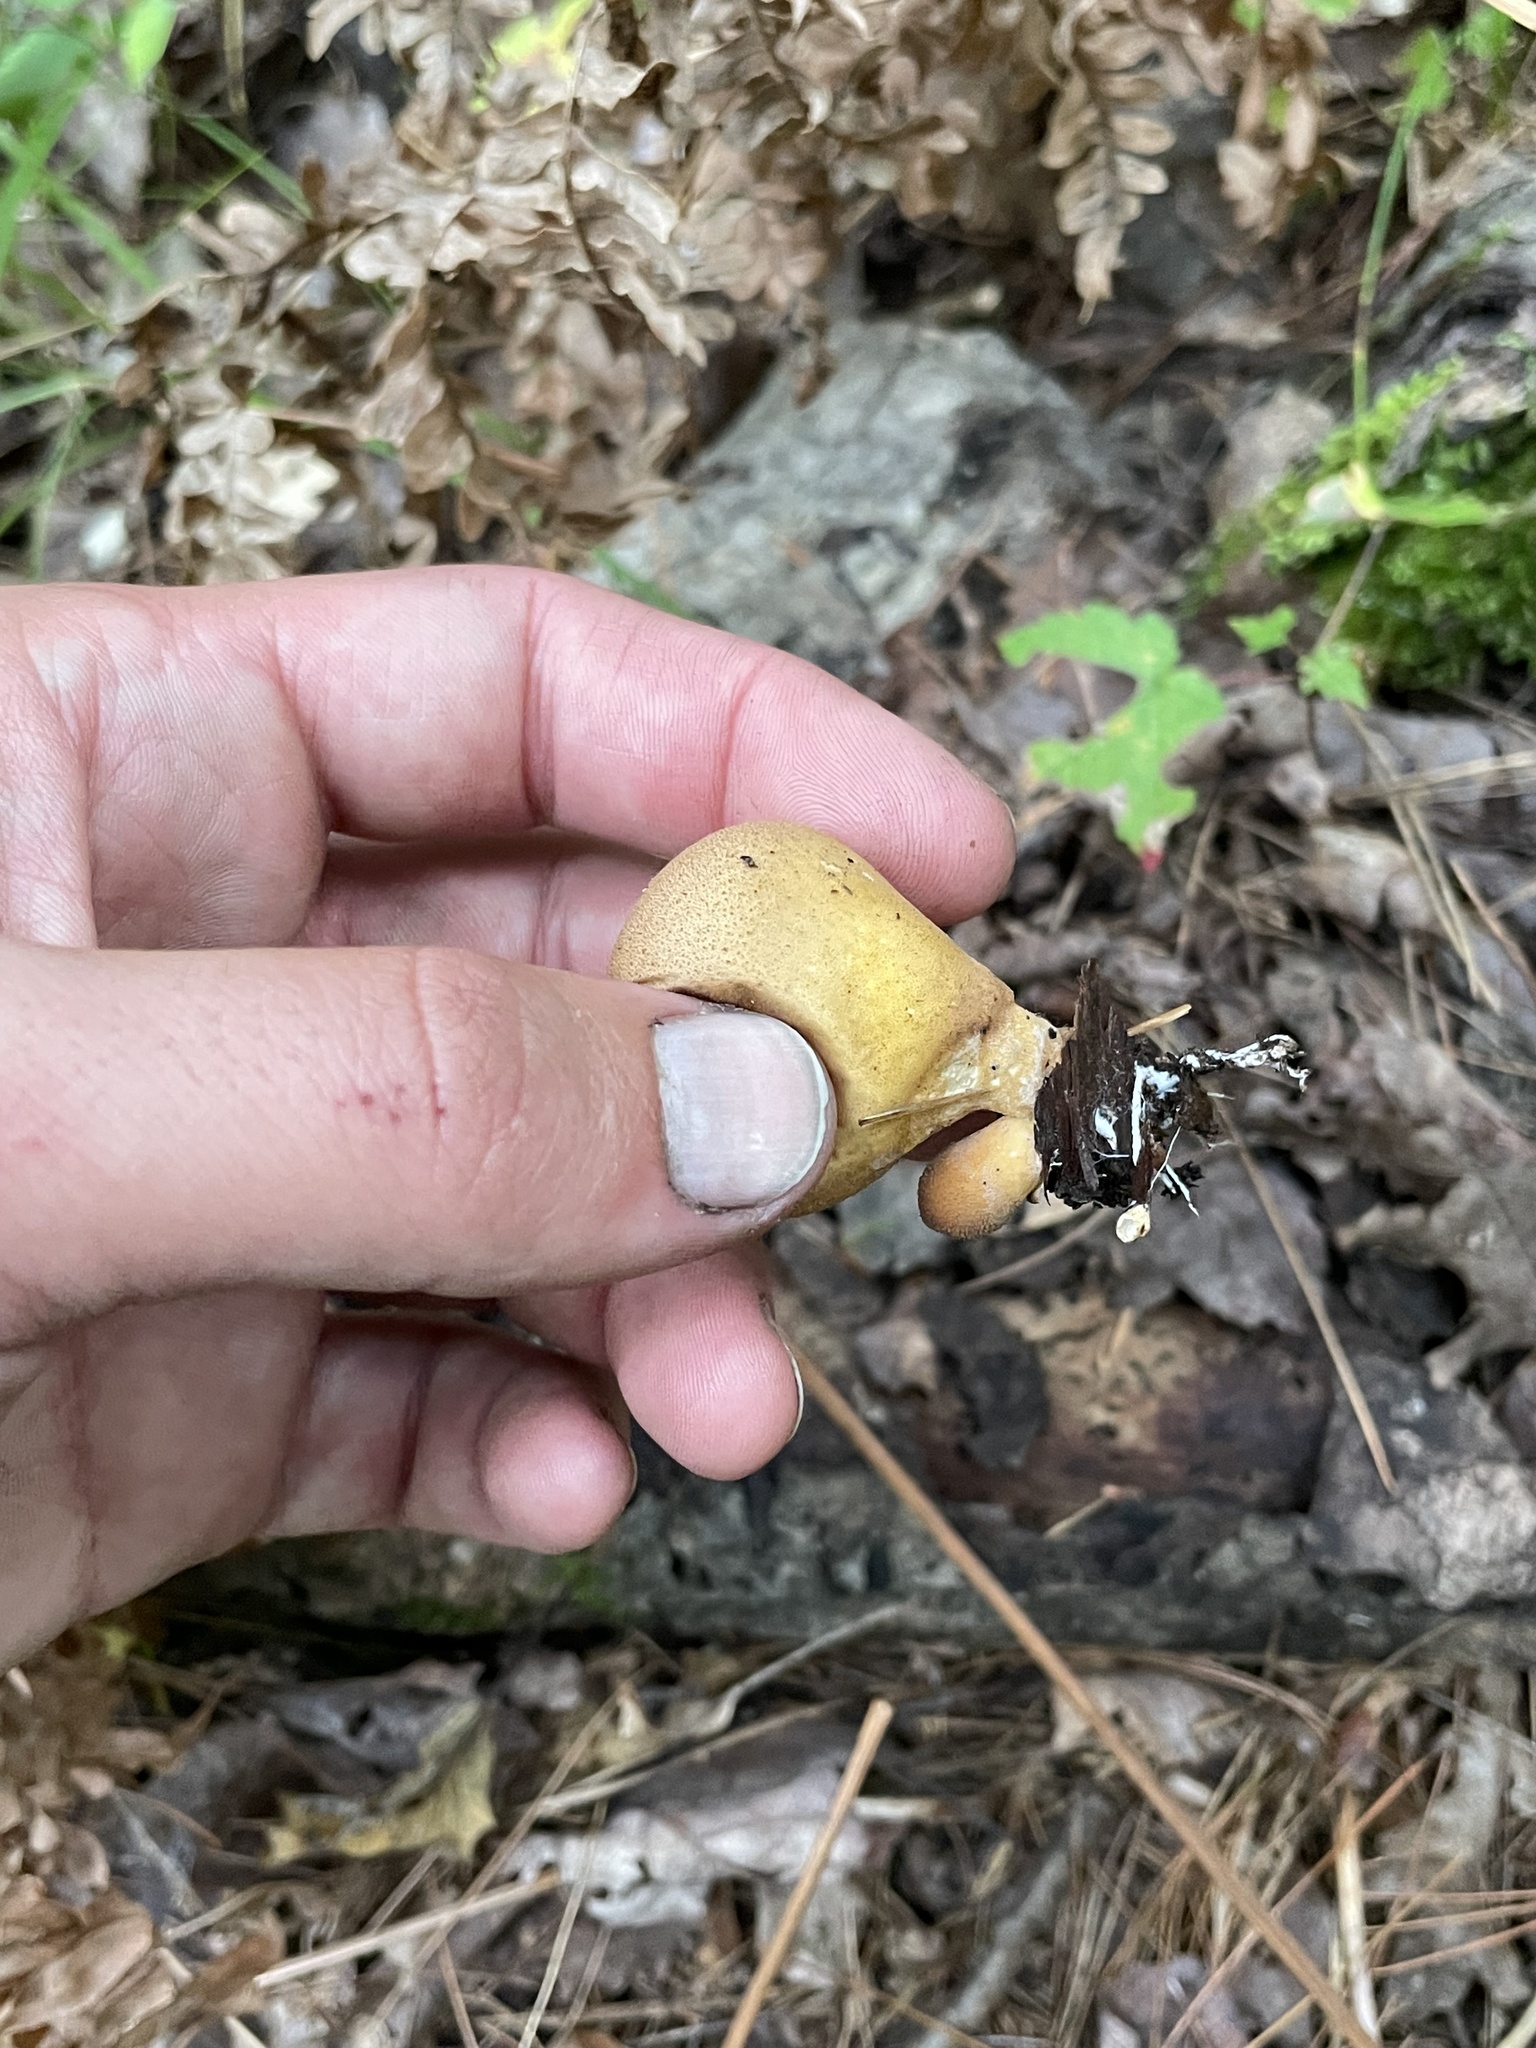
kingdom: Fungi
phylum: Basidiomycota
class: Agaricomycetes
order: Agaricales
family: Lycoperdaceae
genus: Apioperdon
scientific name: Apioperdon pyriforme
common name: Pear-shaped puffball
